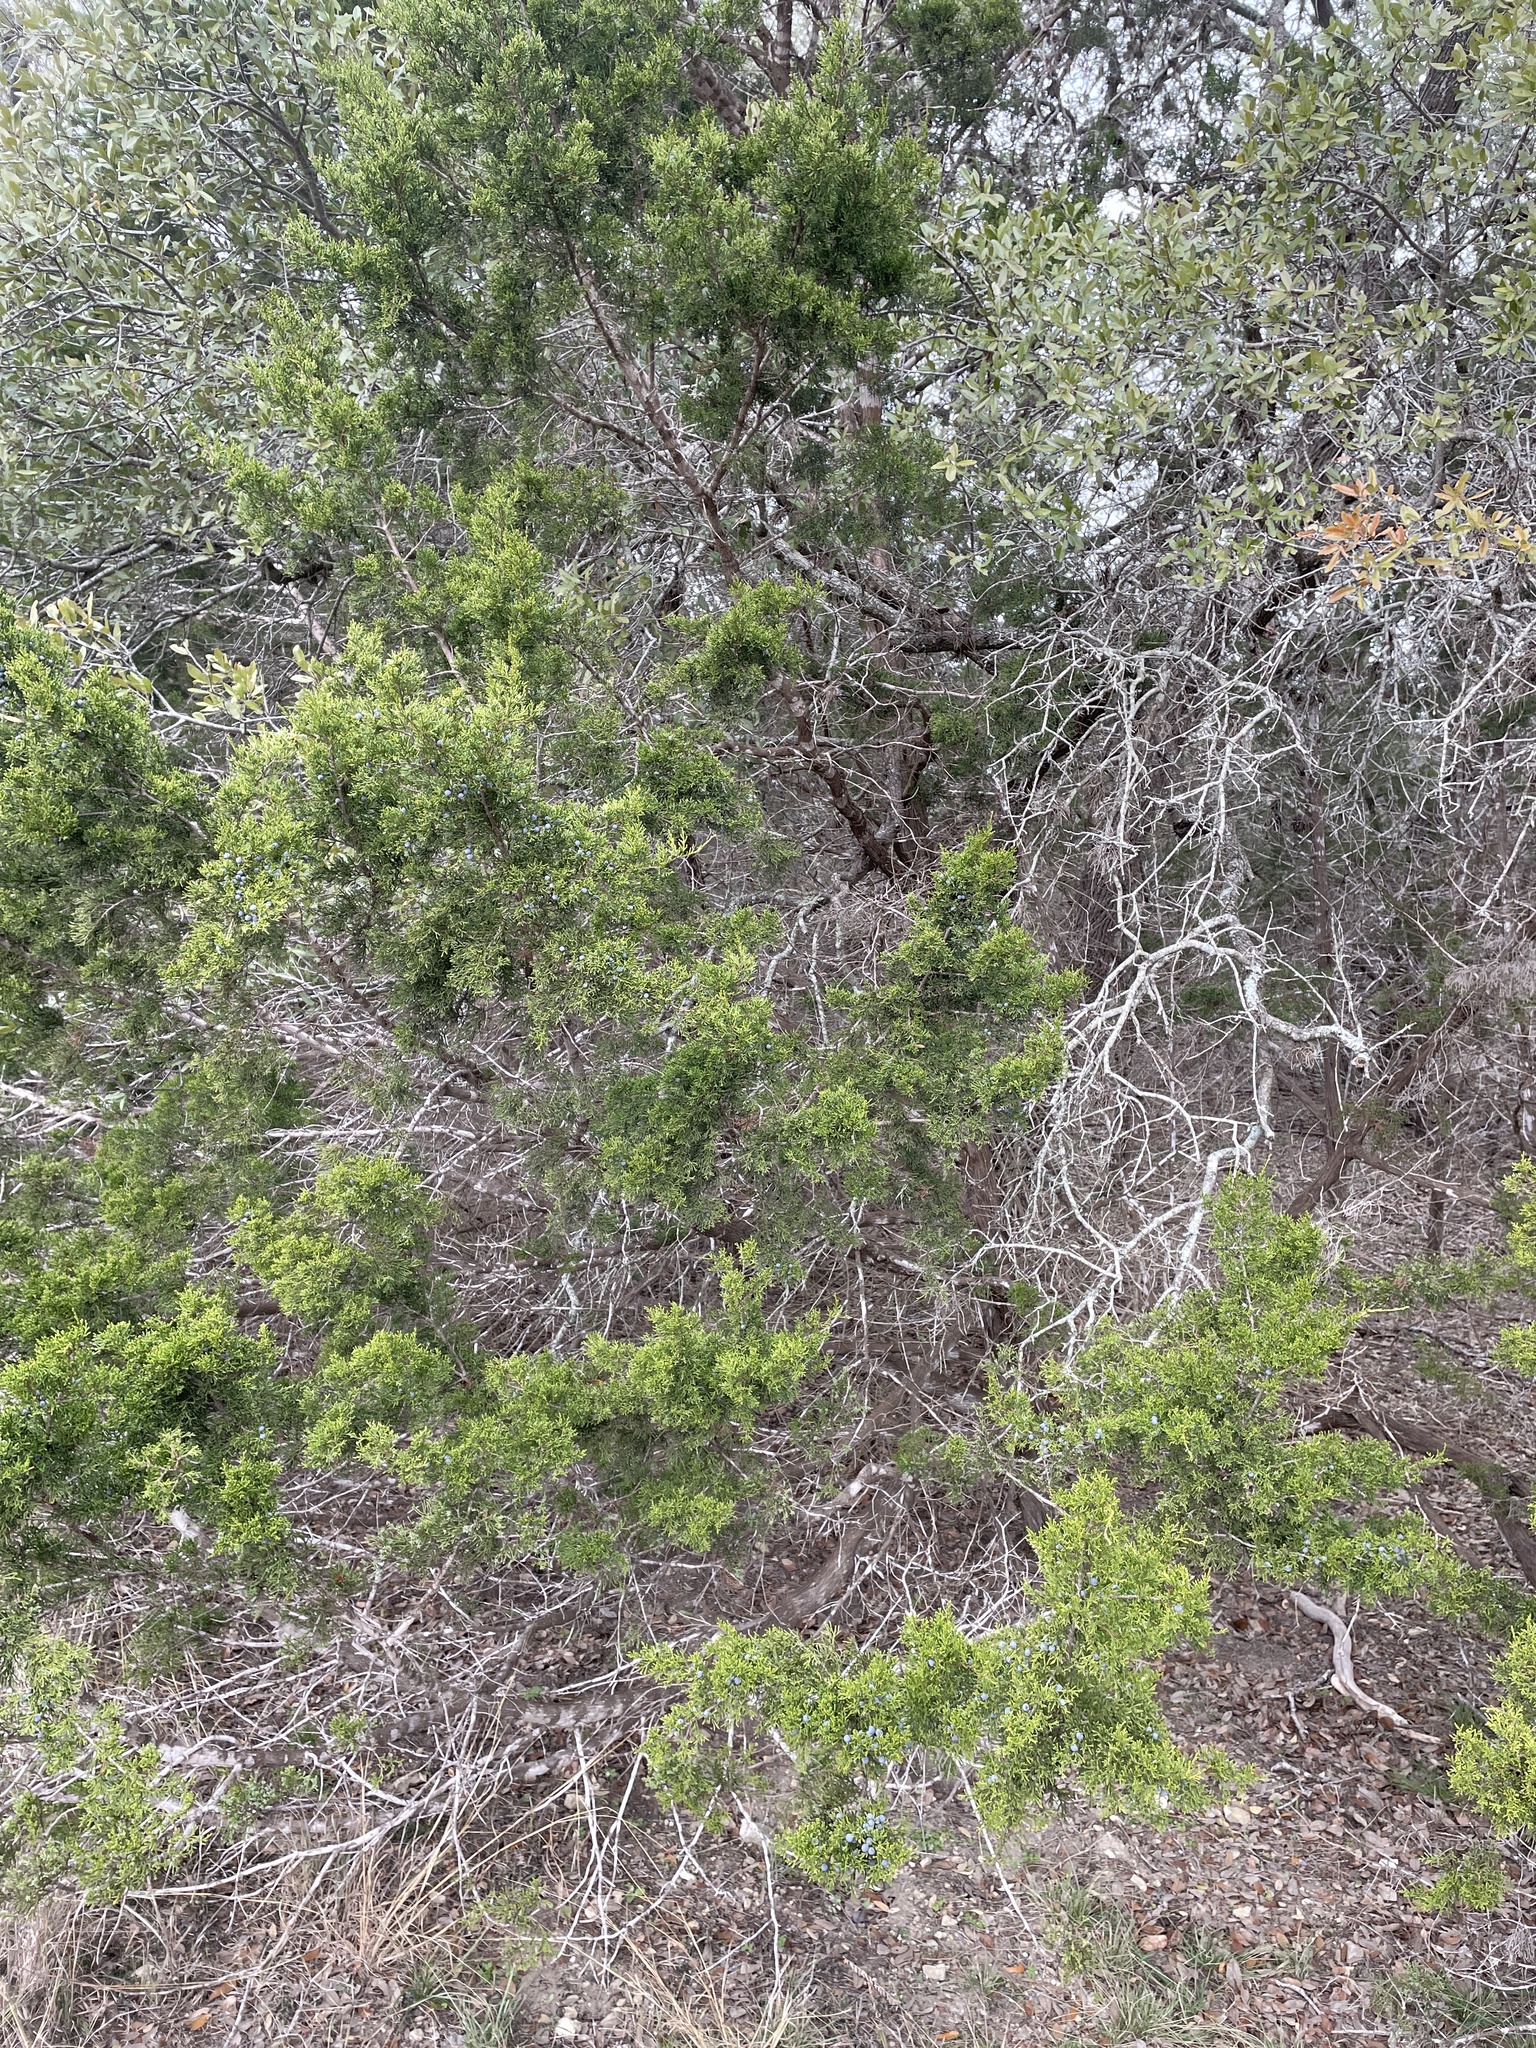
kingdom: Plantae
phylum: Tracheophyta
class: Pinopsida
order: Pinales
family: Cupressaceae
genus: Juniperus
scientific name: Juniperus ashei
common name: Mexican juniper
